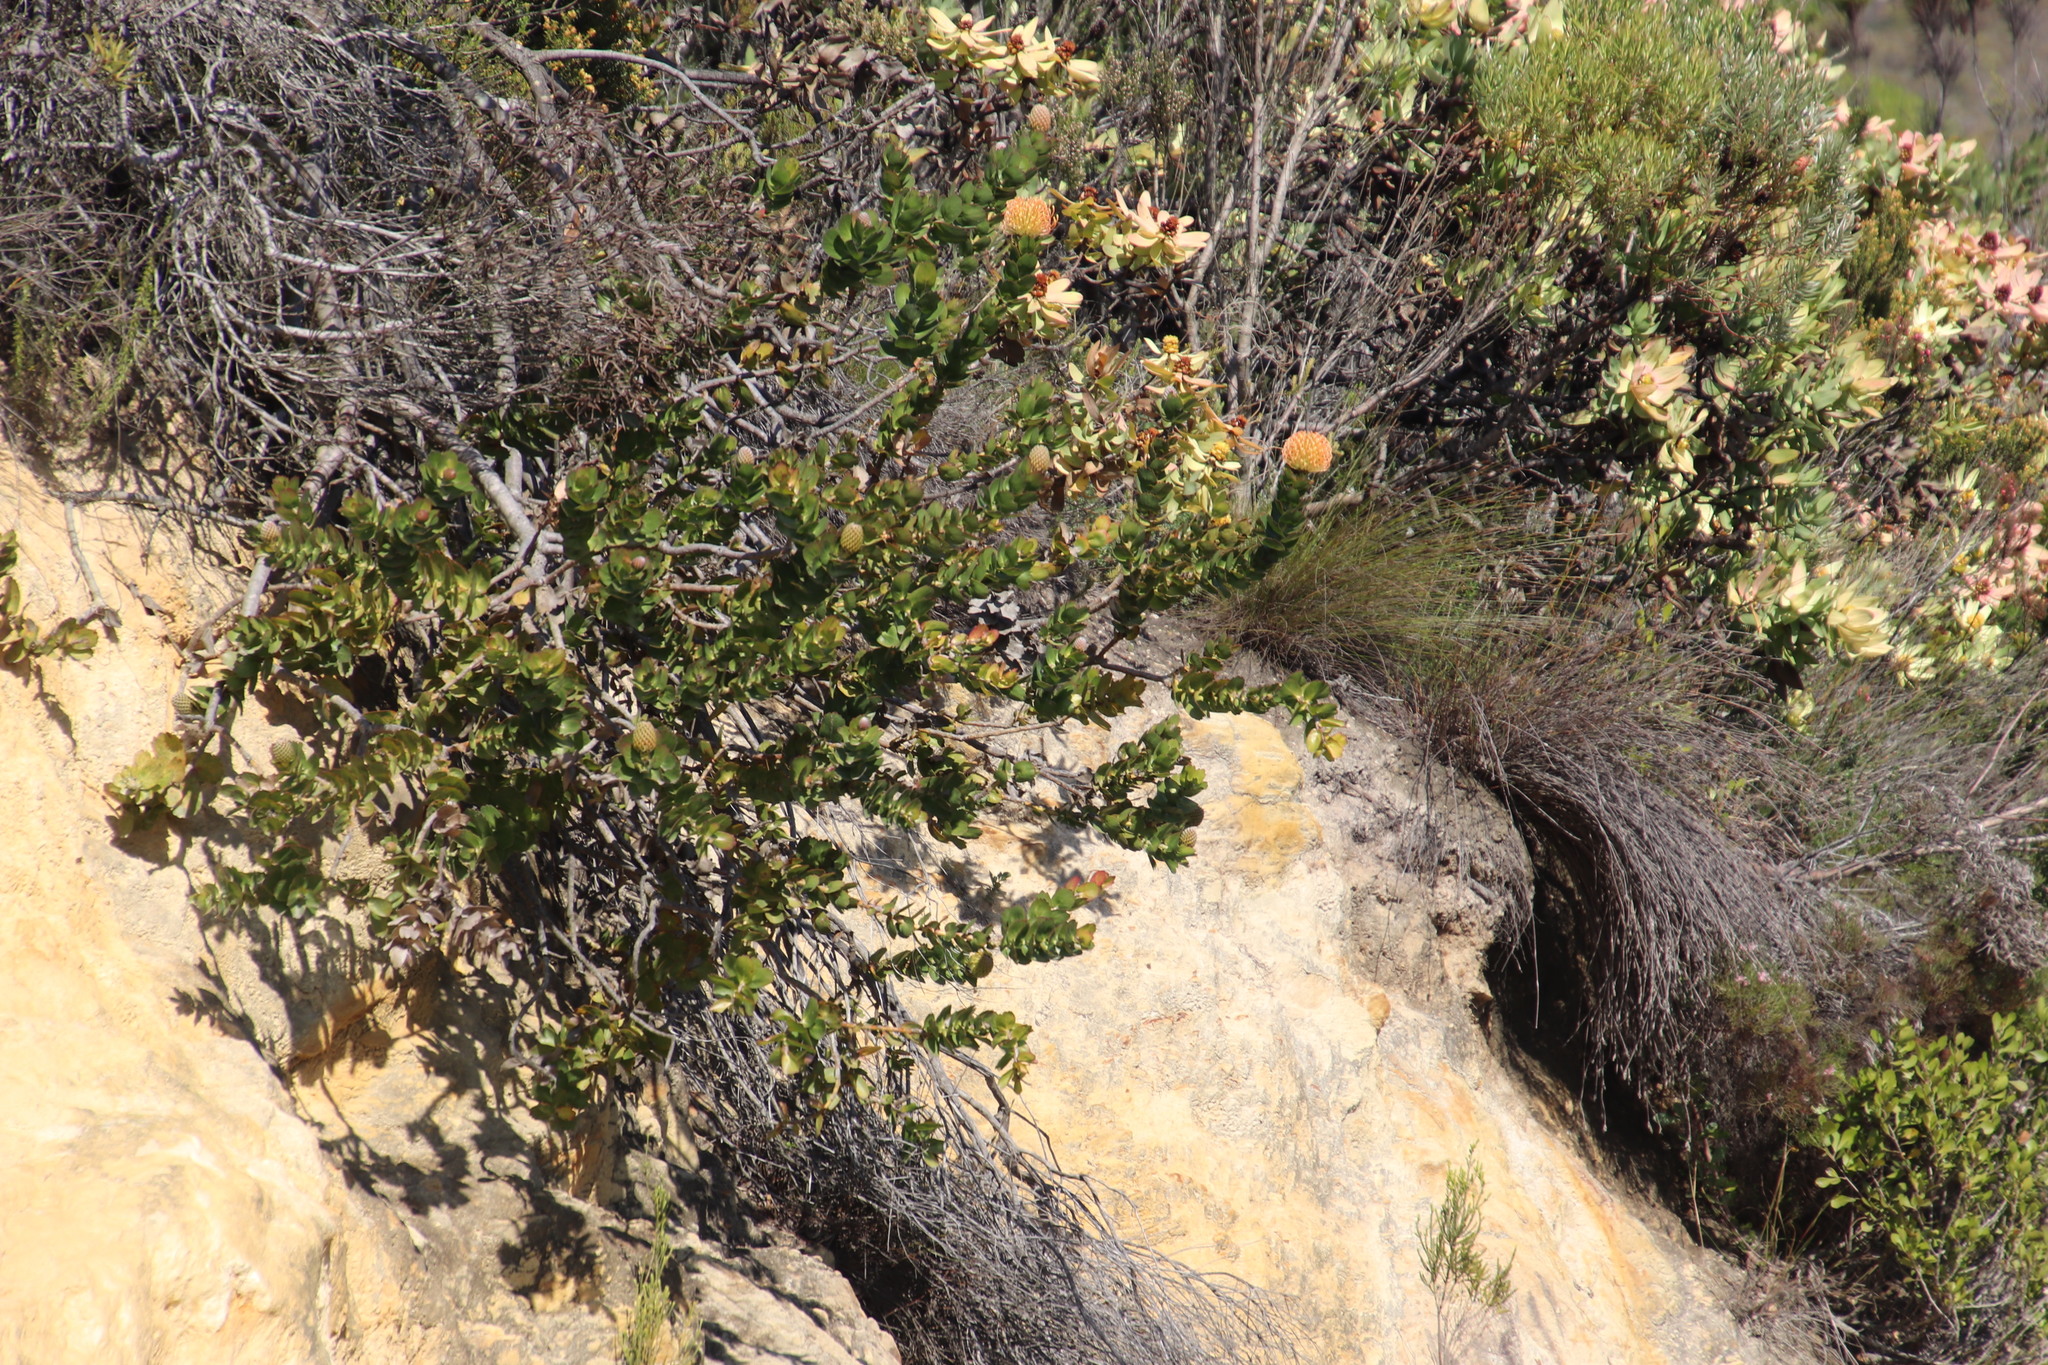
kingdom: Plantae
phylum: Tracheophyta
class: Magnoliopsida
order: Proteales
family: Proteaceae
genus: Leucospermum
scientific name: Leucospermum patersonii
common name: False tree pincushion
